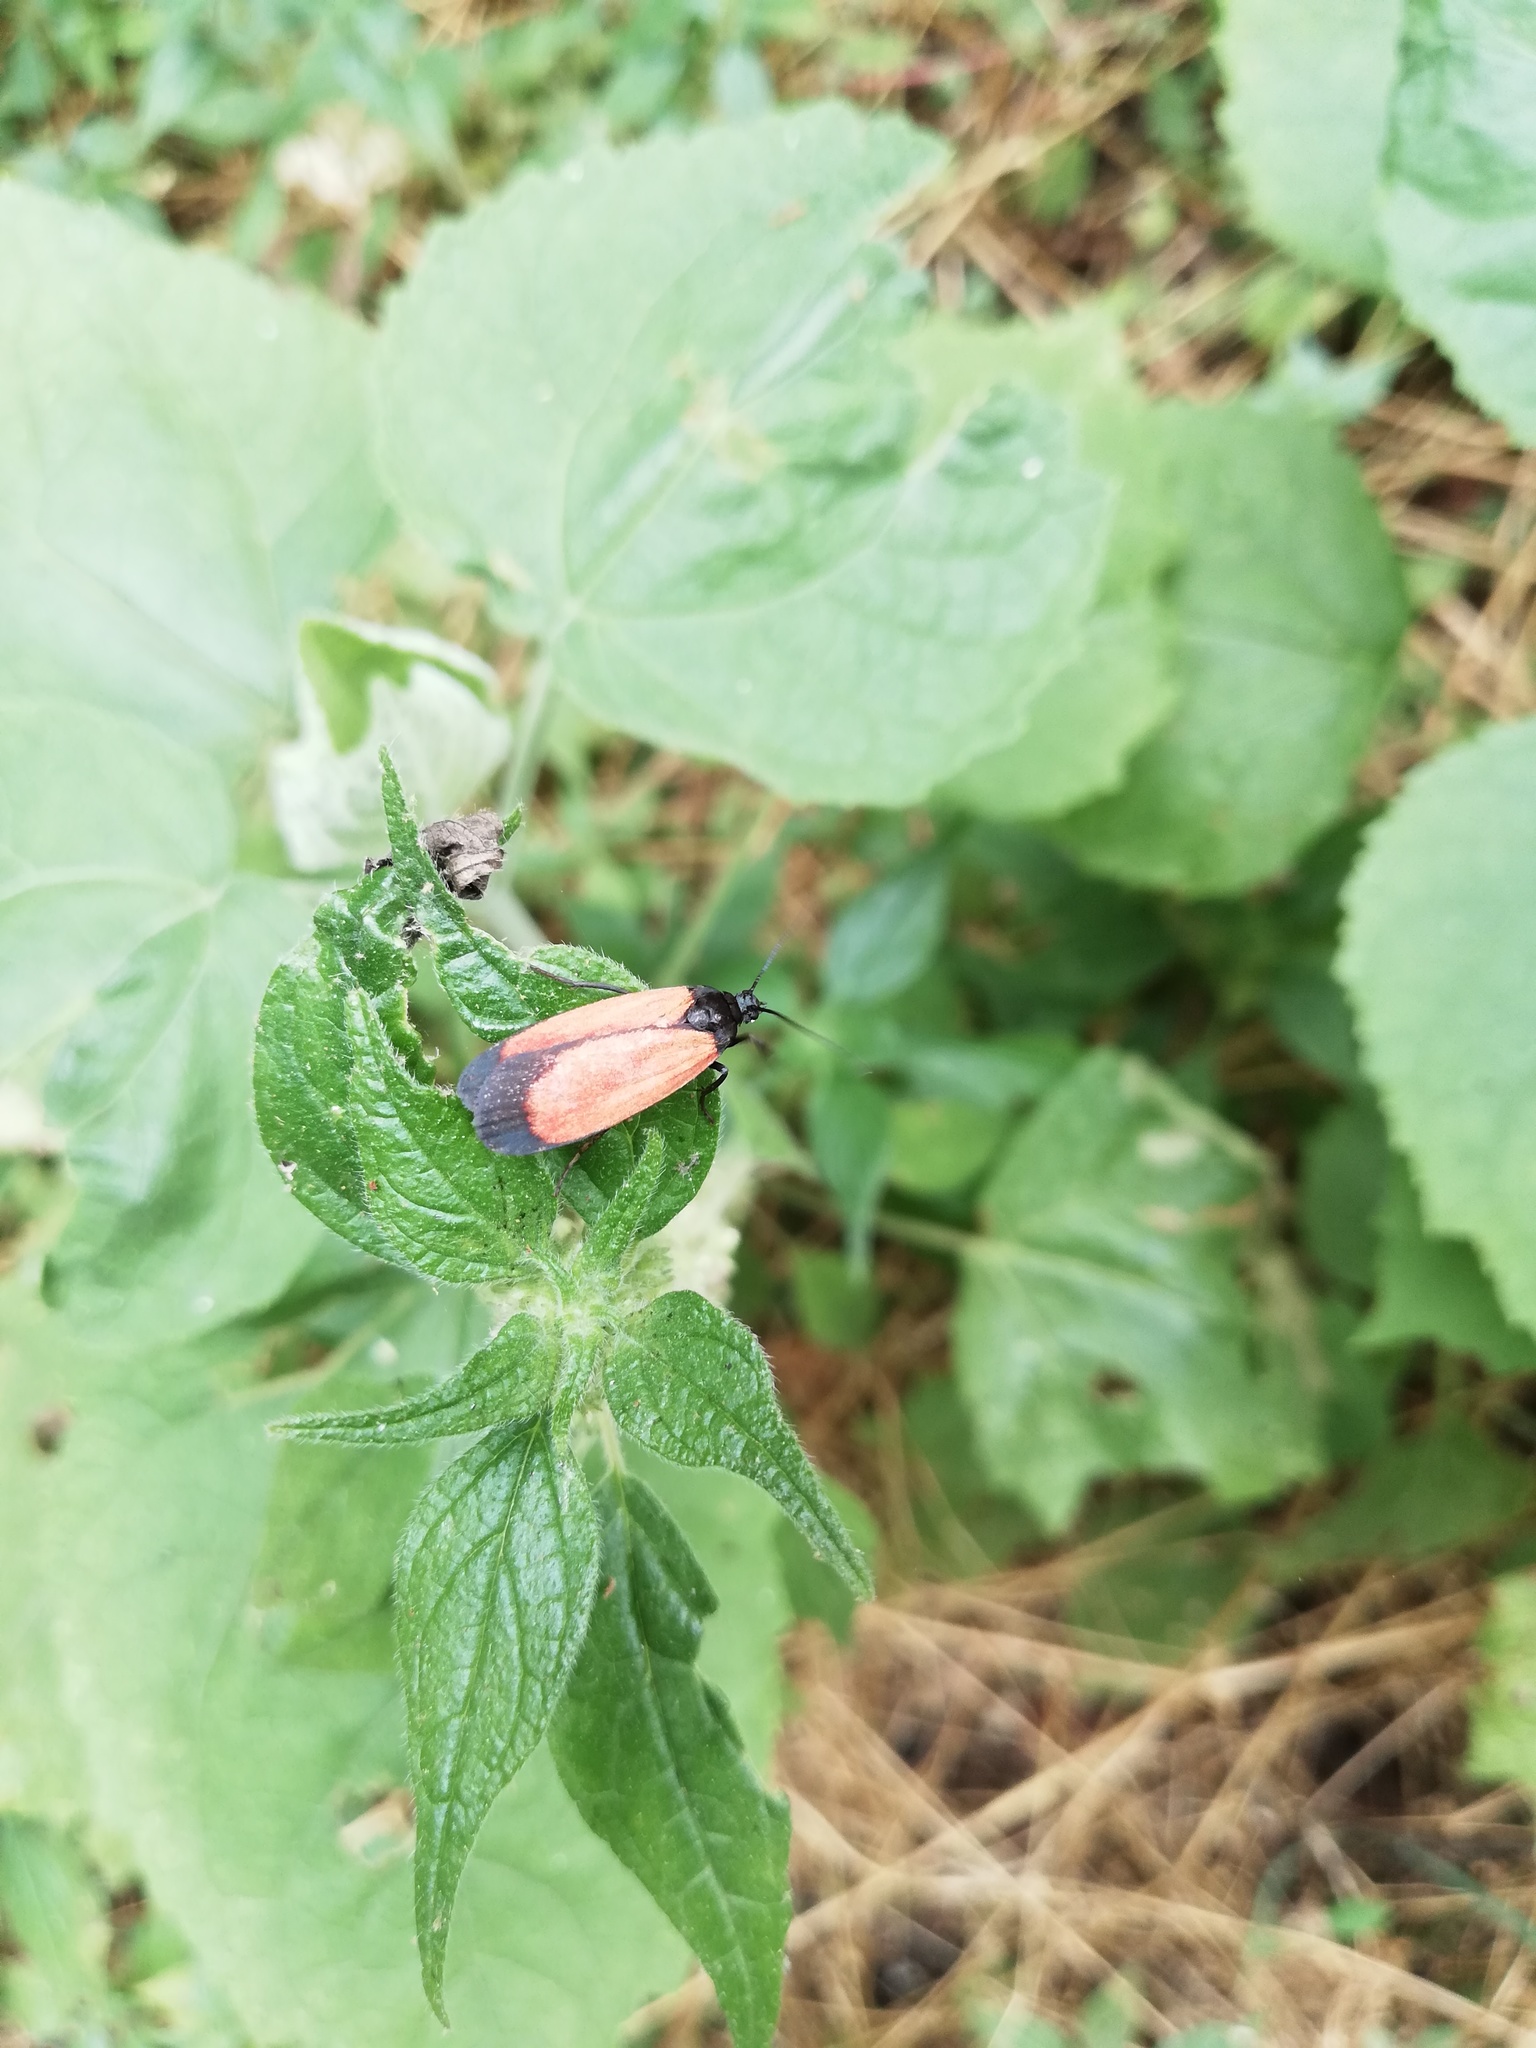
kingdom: Animalia
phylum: Arthropoda
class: Insecta
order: Lepidoptera
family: Erebidae
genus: Ptychoglene
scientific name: Ptychoglene sanguineola
